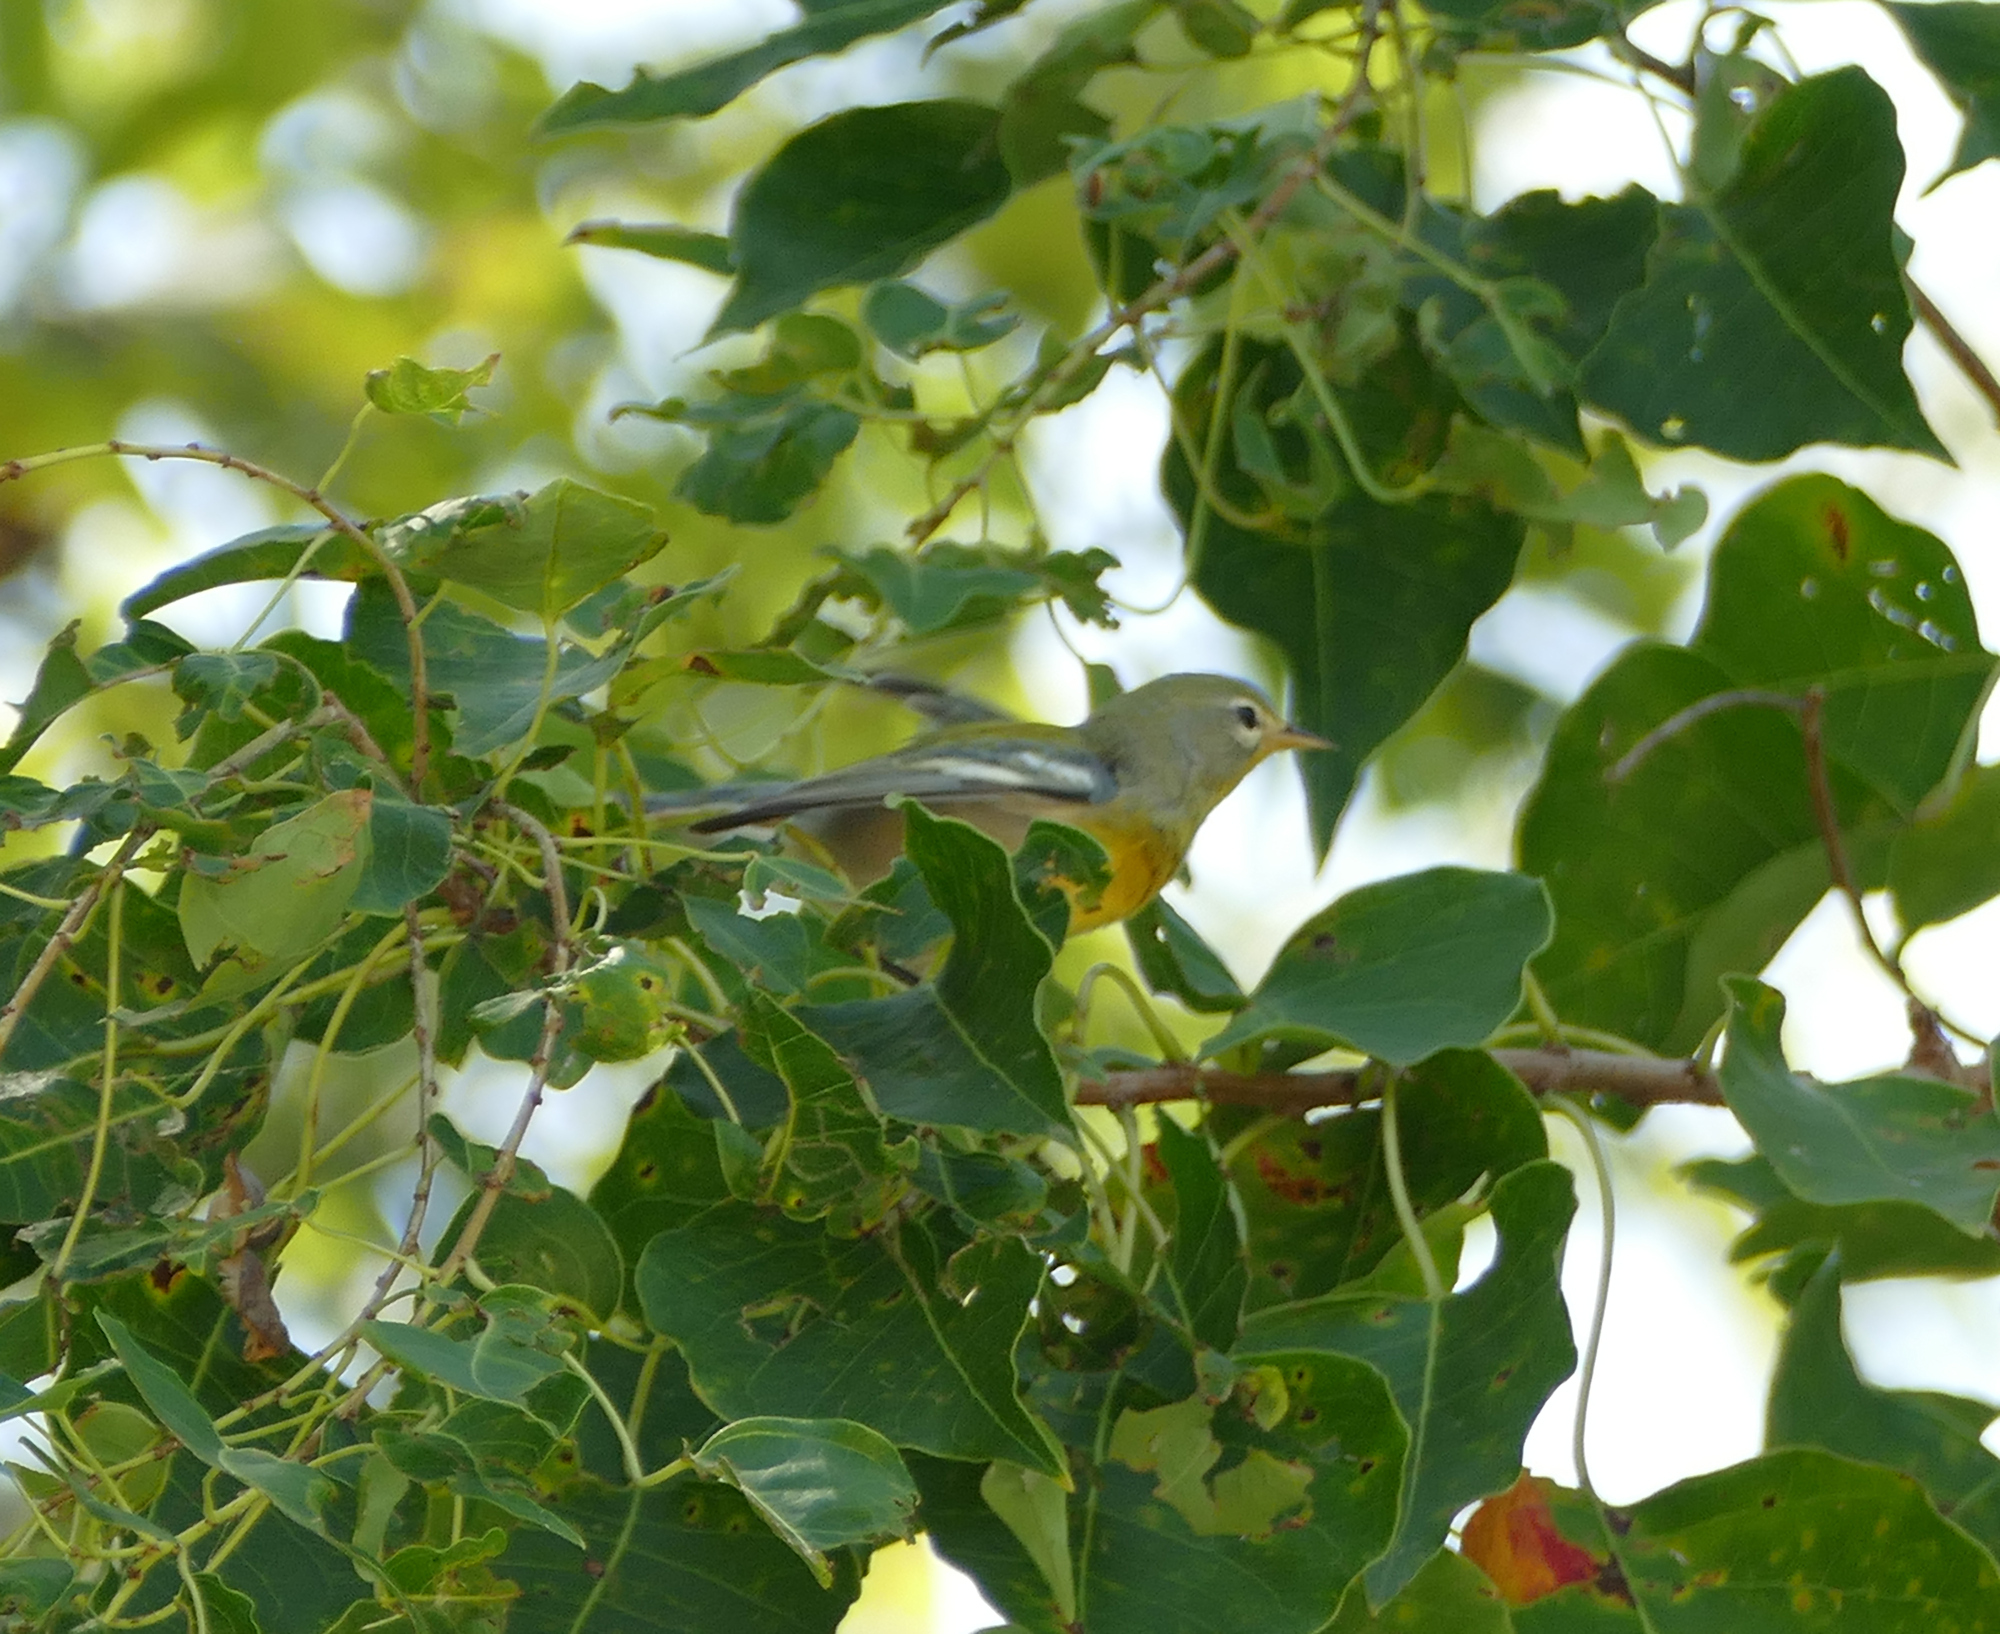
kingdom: Animalia
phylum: Chordata
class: Aves
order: Passeriformes
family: Parulidae
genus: Setophaga
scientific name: Setophaga americana
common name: Northern parula
